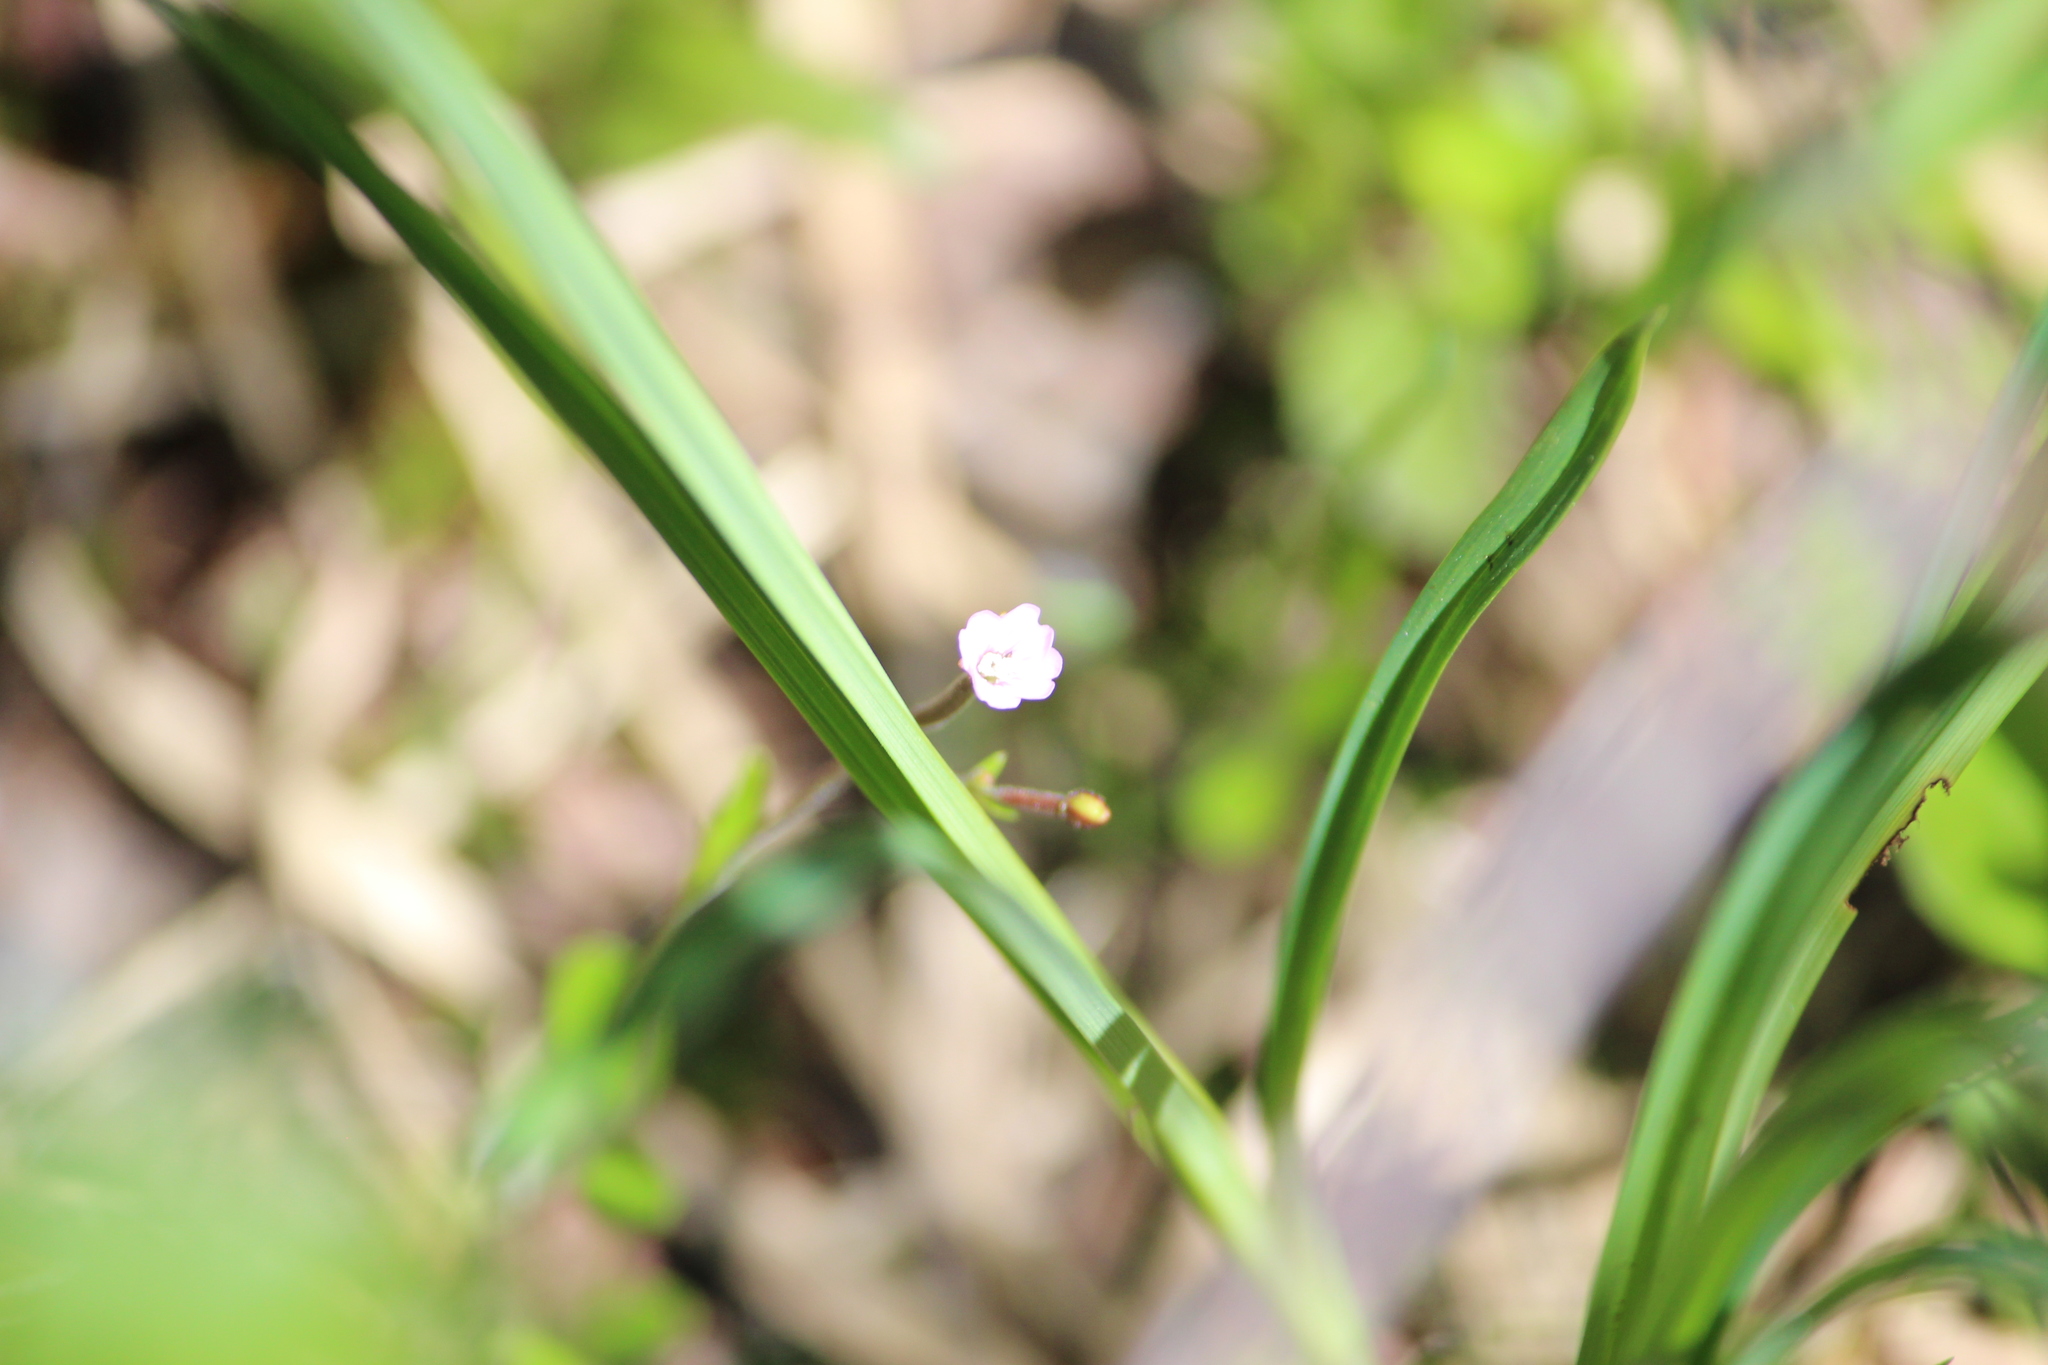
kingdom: Plantae
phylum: Tracheophyta
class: Magnoliopsida
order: Myrtales
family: Onagraceae
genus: Epilobium
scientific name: Epilobium minutum
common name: Chaparral willowherb
